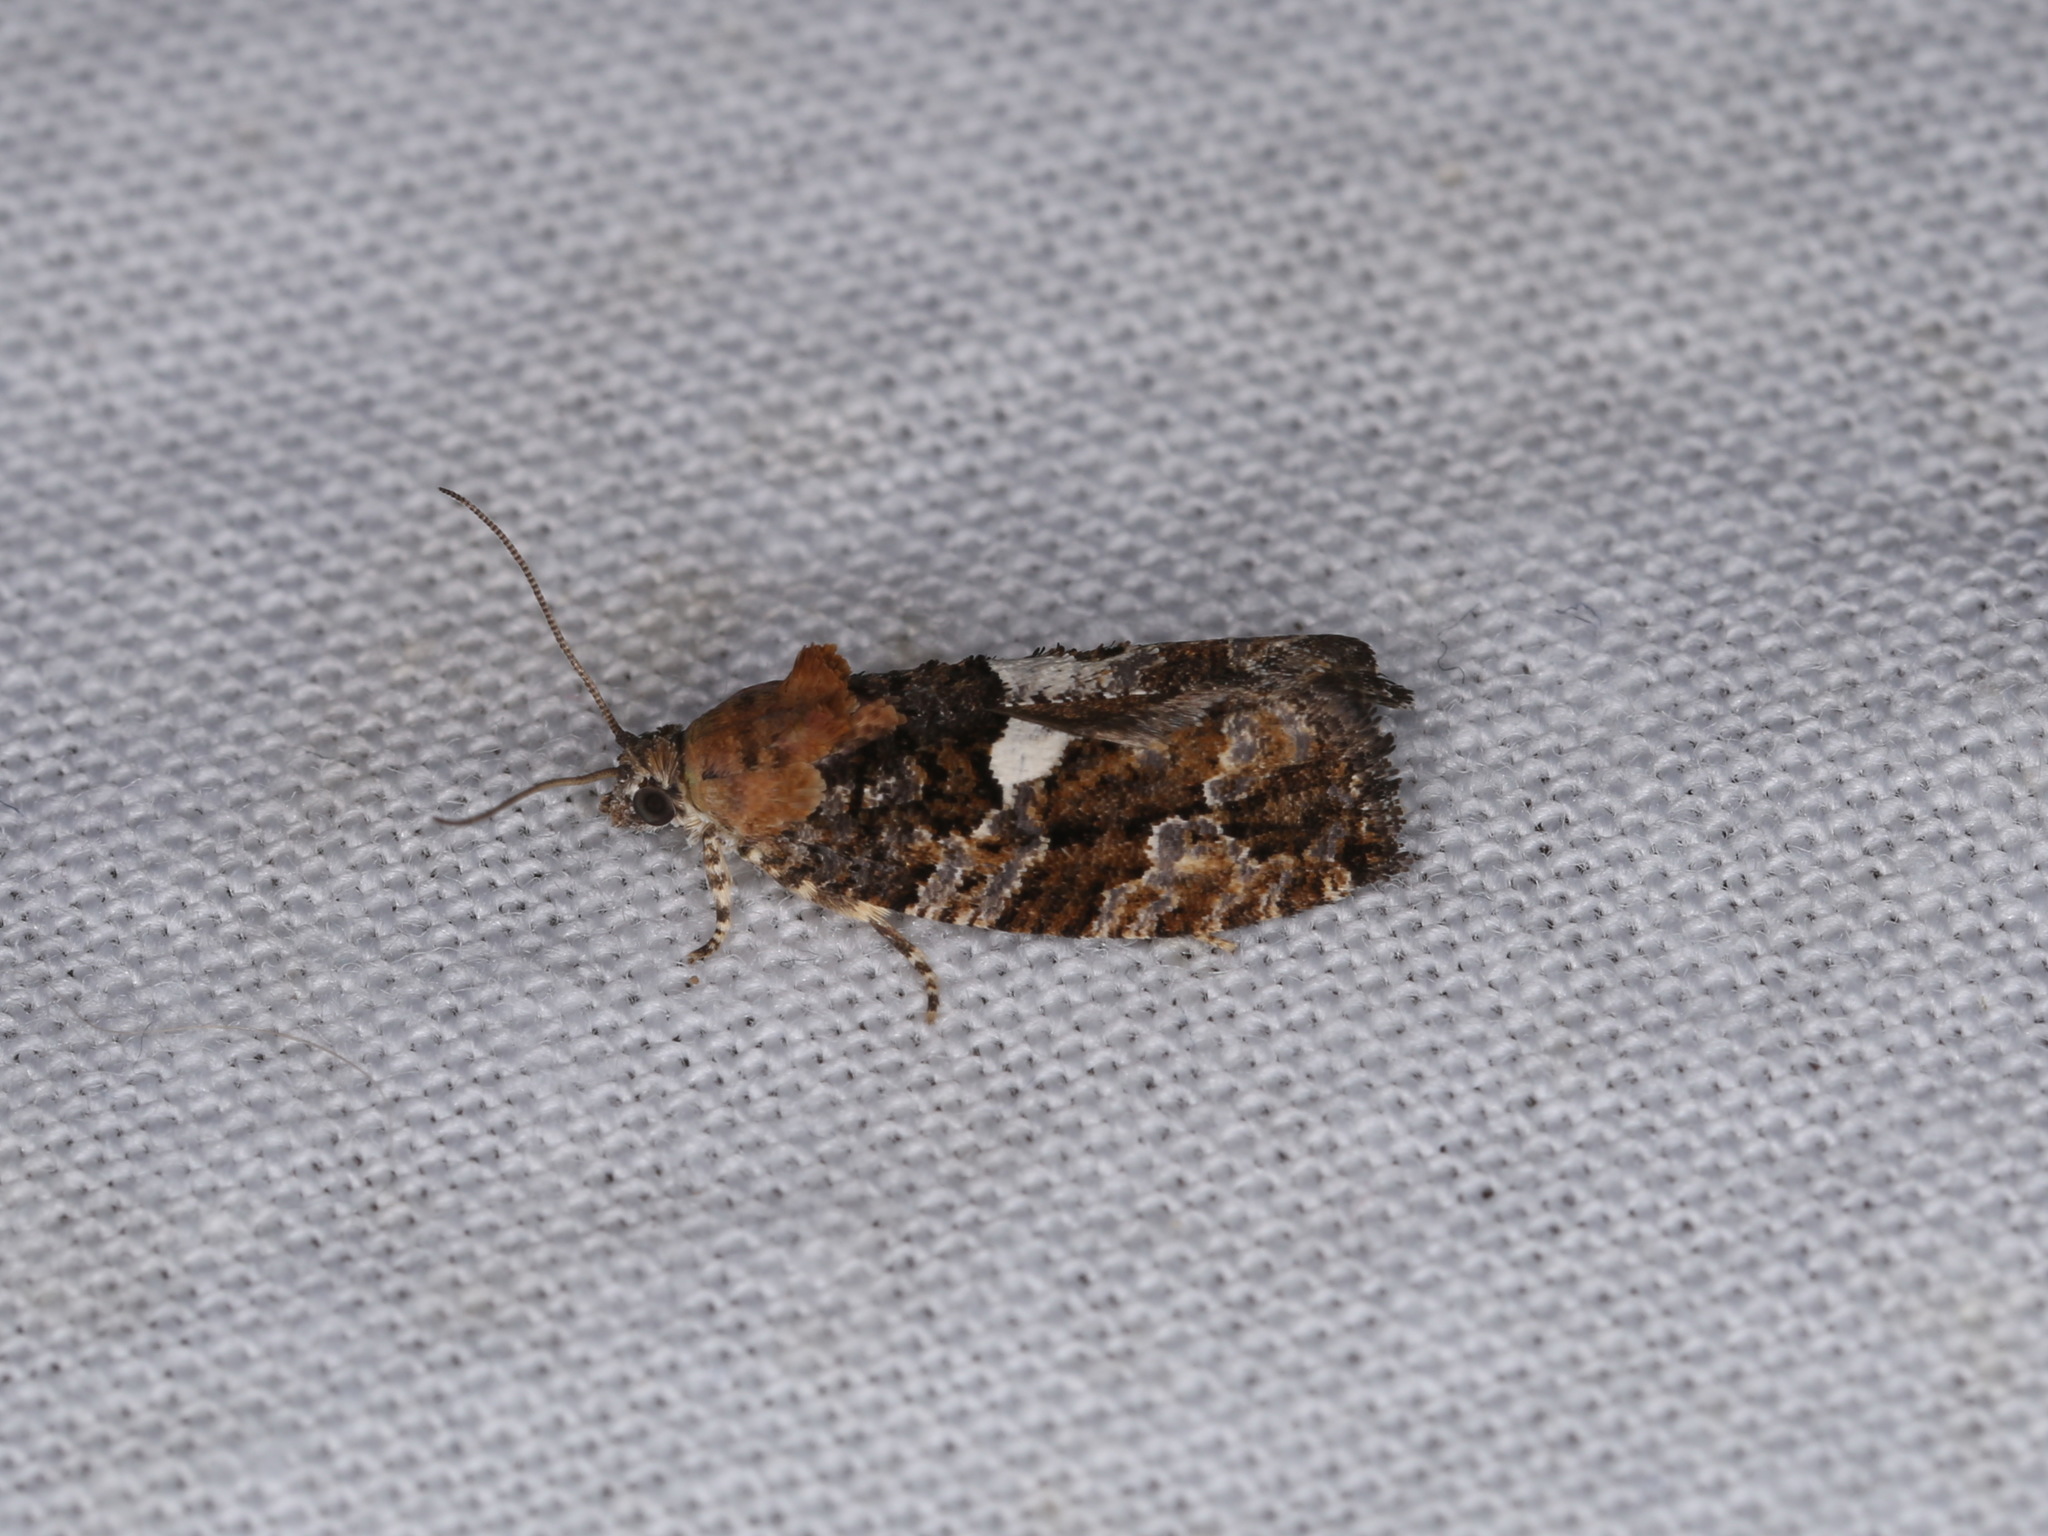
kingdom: Animalia
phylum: Arthropoda
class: Insecta
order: Lepidoptera
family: Tortricidae
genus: Eudemis
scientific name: Eudemis profundana
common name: Diamond-back marble
